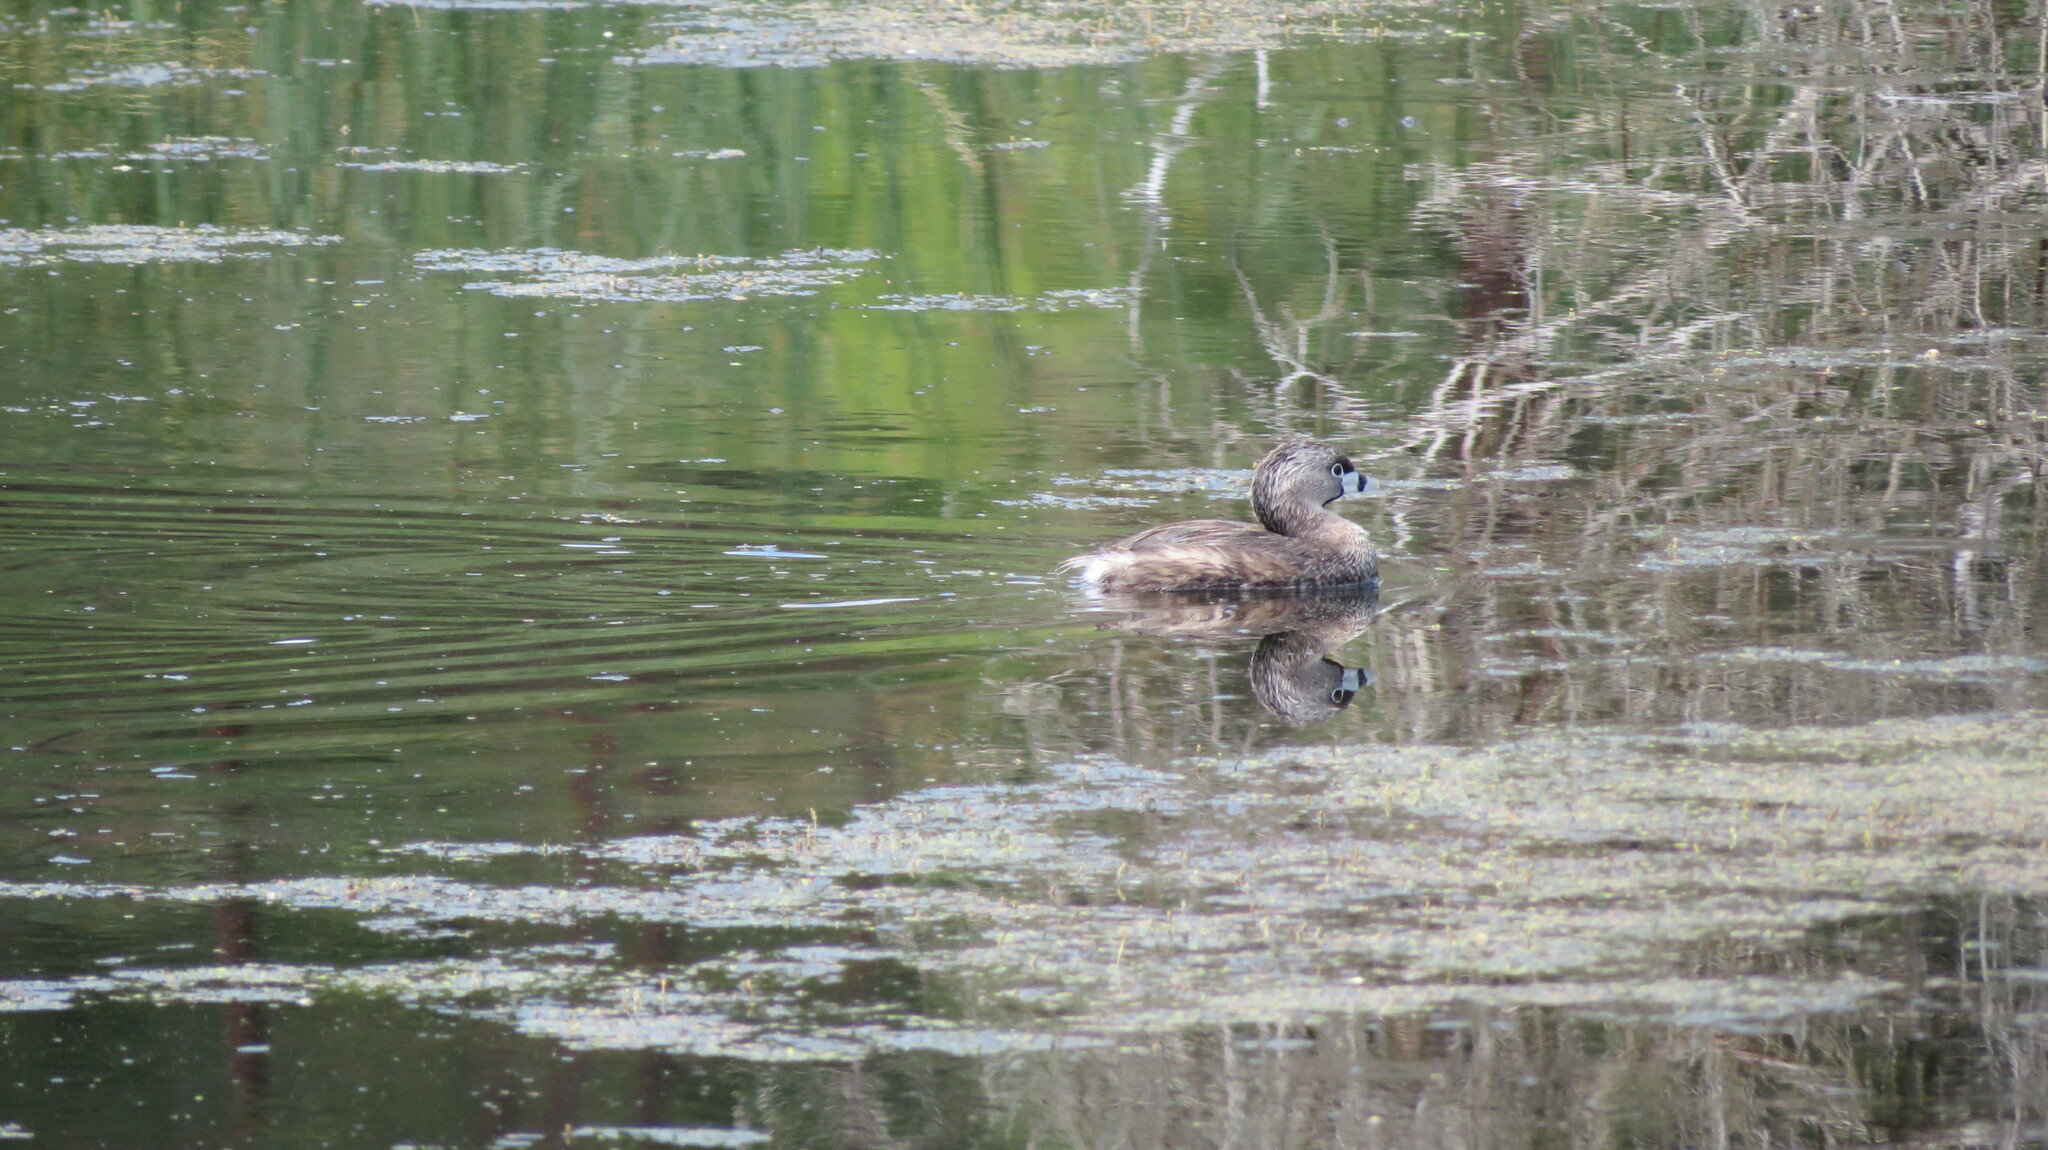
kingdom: Animalia
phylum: Chordata
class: Aves
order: Podicipediformes
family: Podicipedidae
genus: Podilymbus
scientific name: Podilymbus podiceps
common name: Pied-billed grebe
